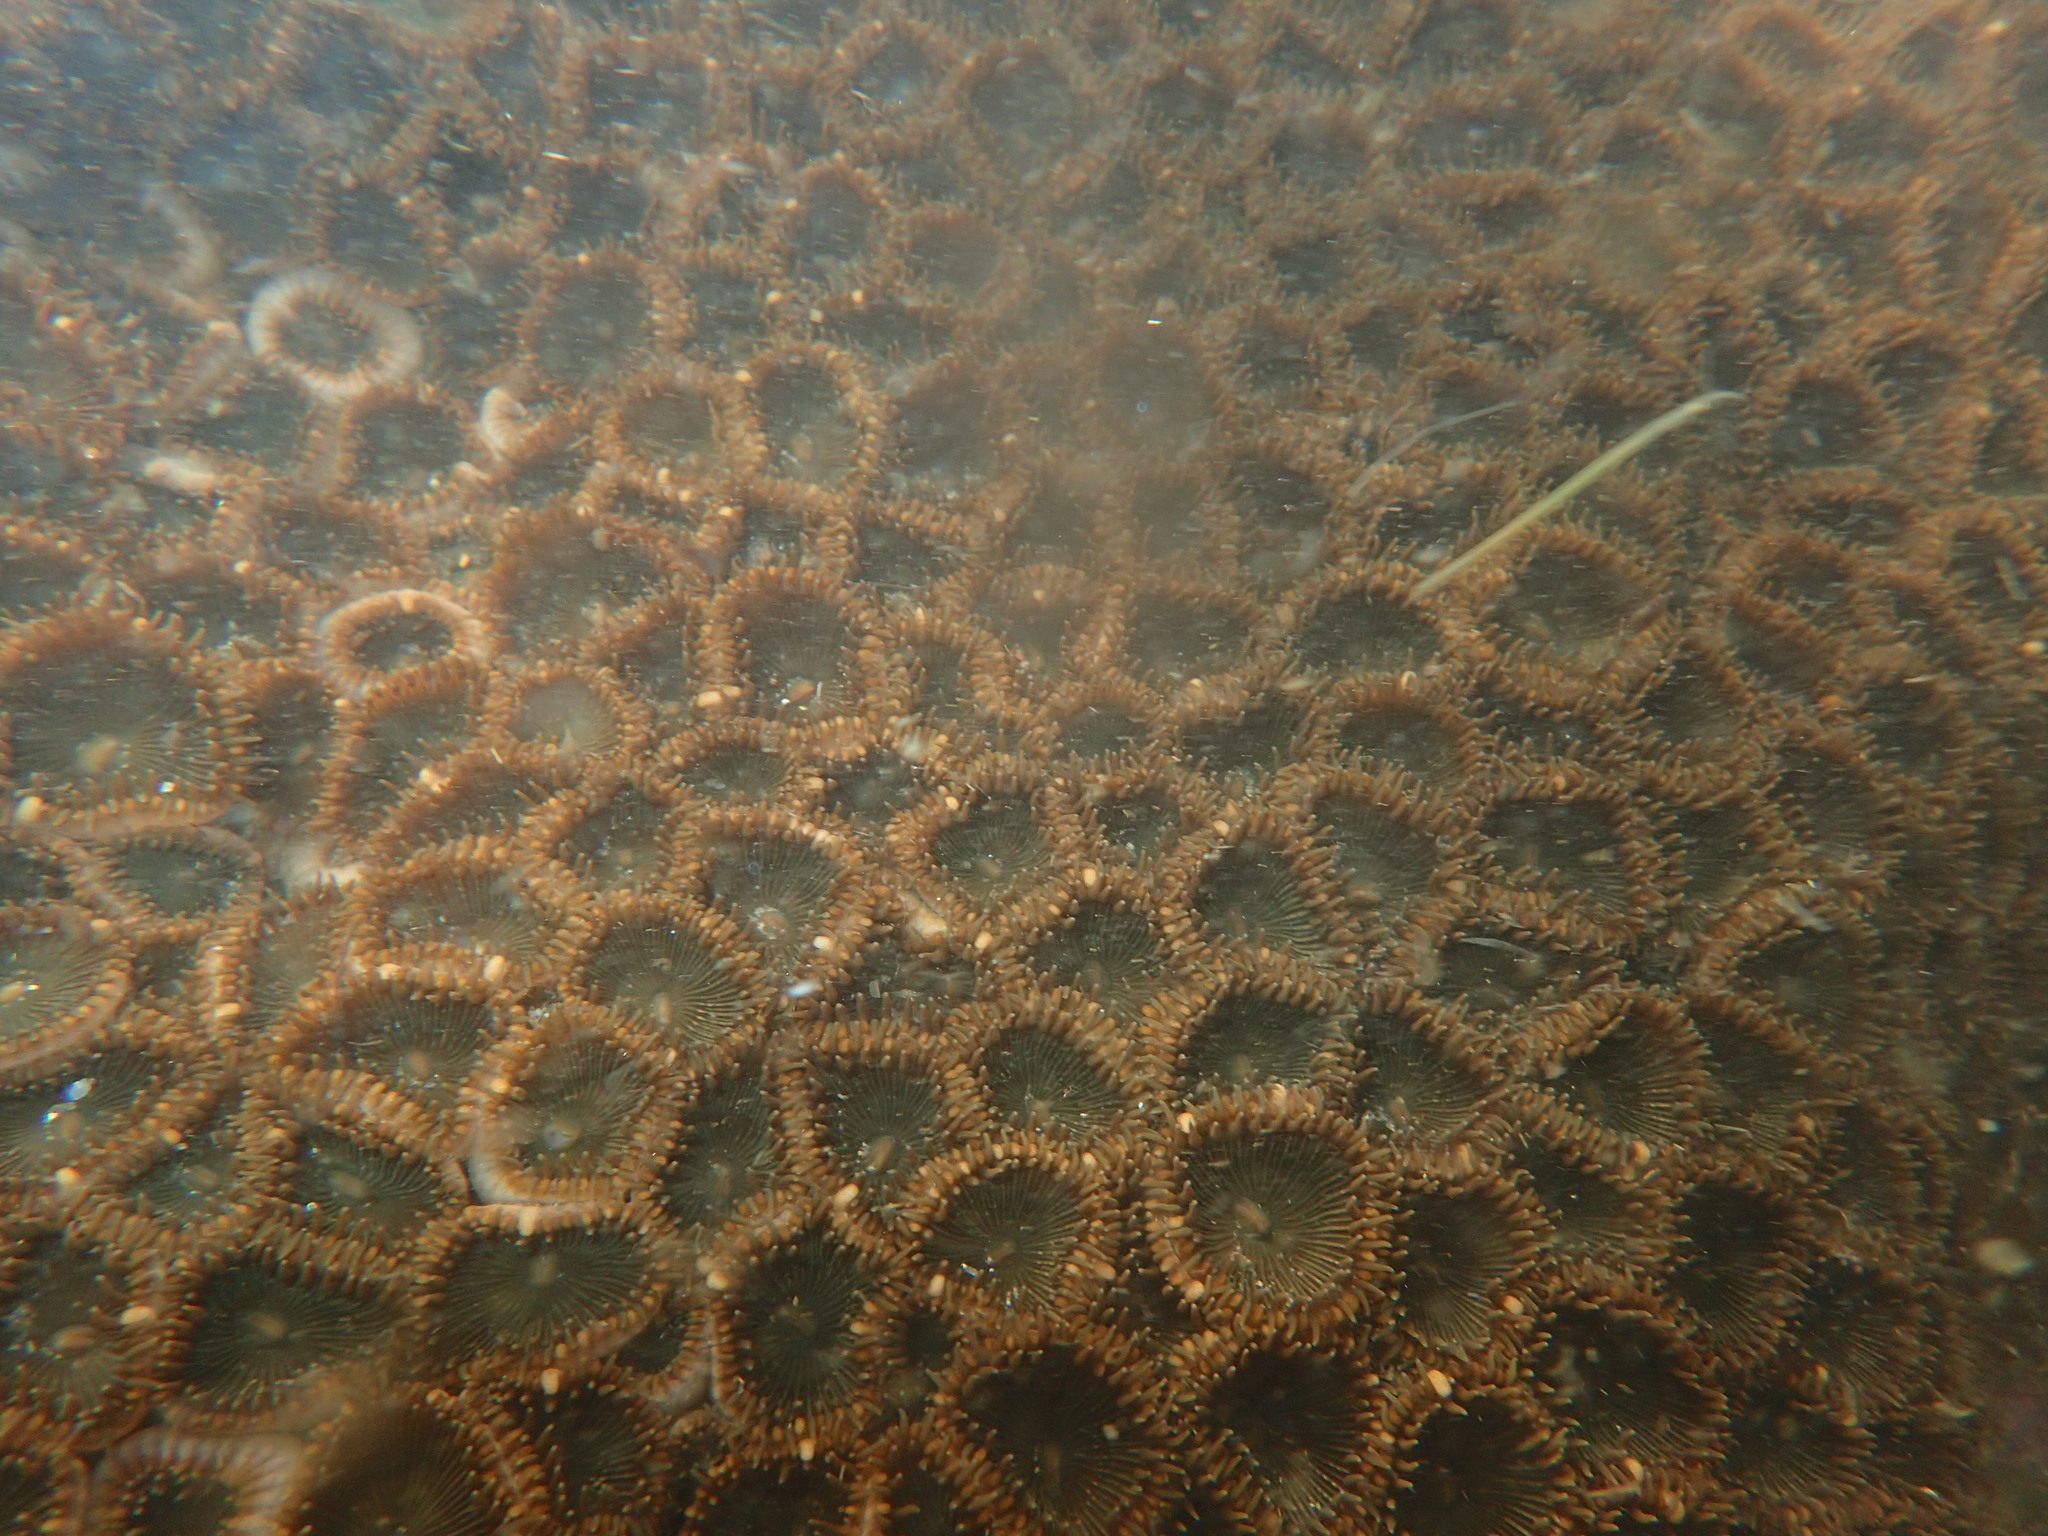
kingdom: Animalia
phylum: Cnidaria
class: Anthozoa
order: Zoantharia
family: Sphenopidae
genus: Palythoa
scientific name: Palythoa mutuki
